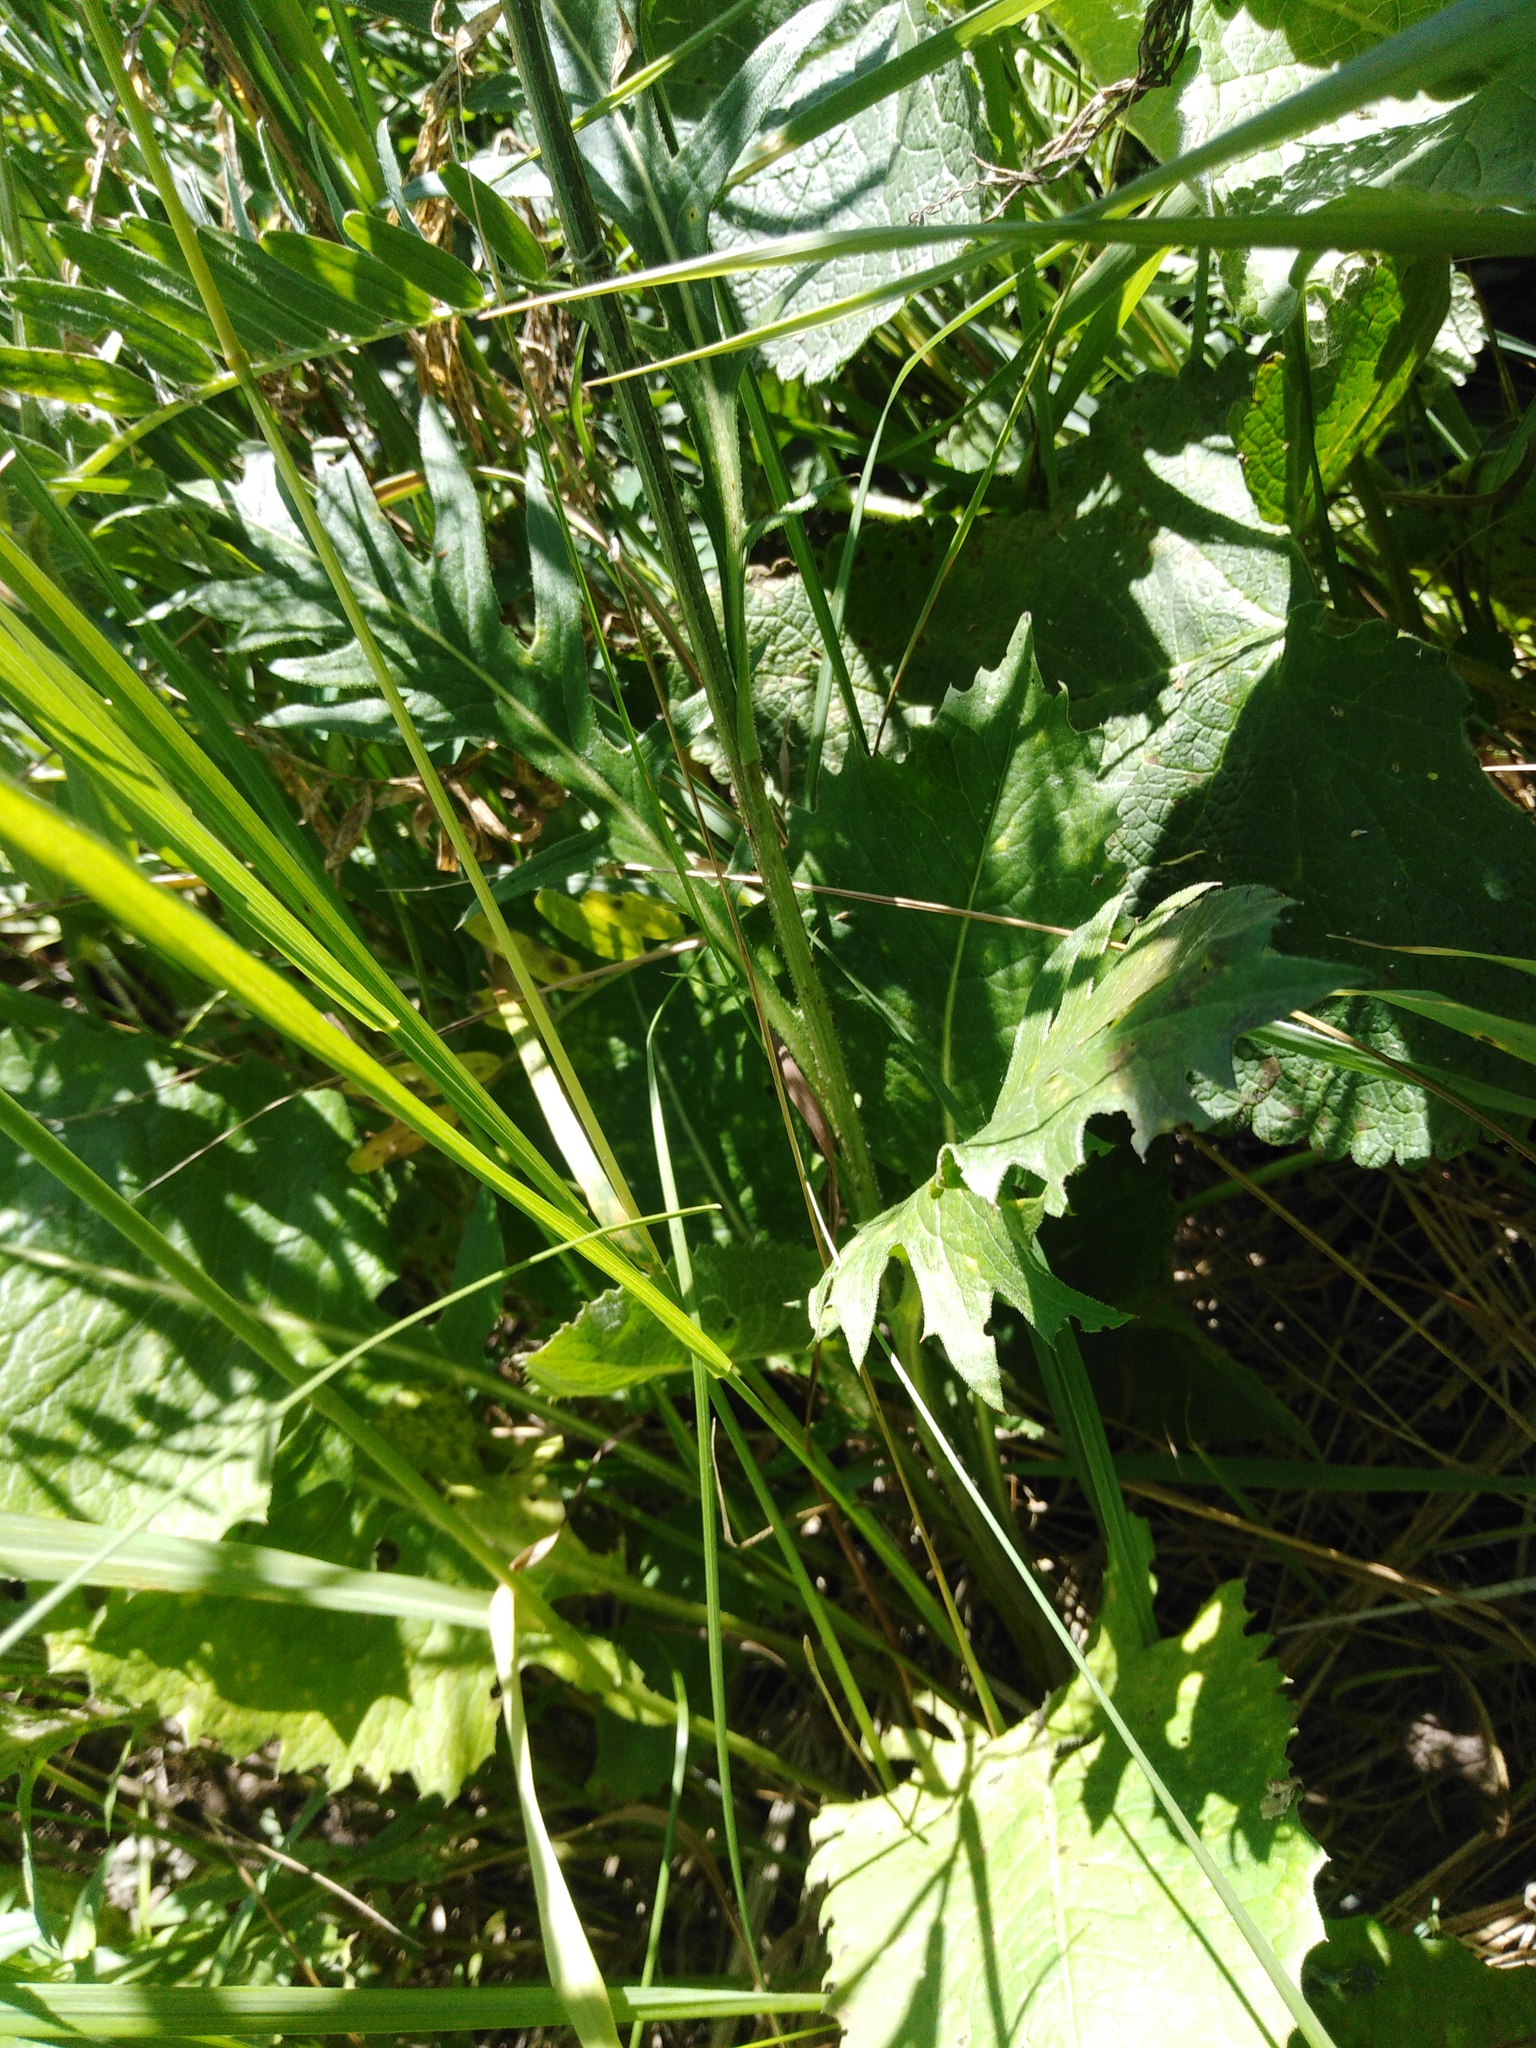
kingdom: Plantae
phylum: Tracheophyta
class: Magnoliopsida
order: Asterales
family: Asteraceae
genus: Klasea
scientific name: Klasea lycopifolia
